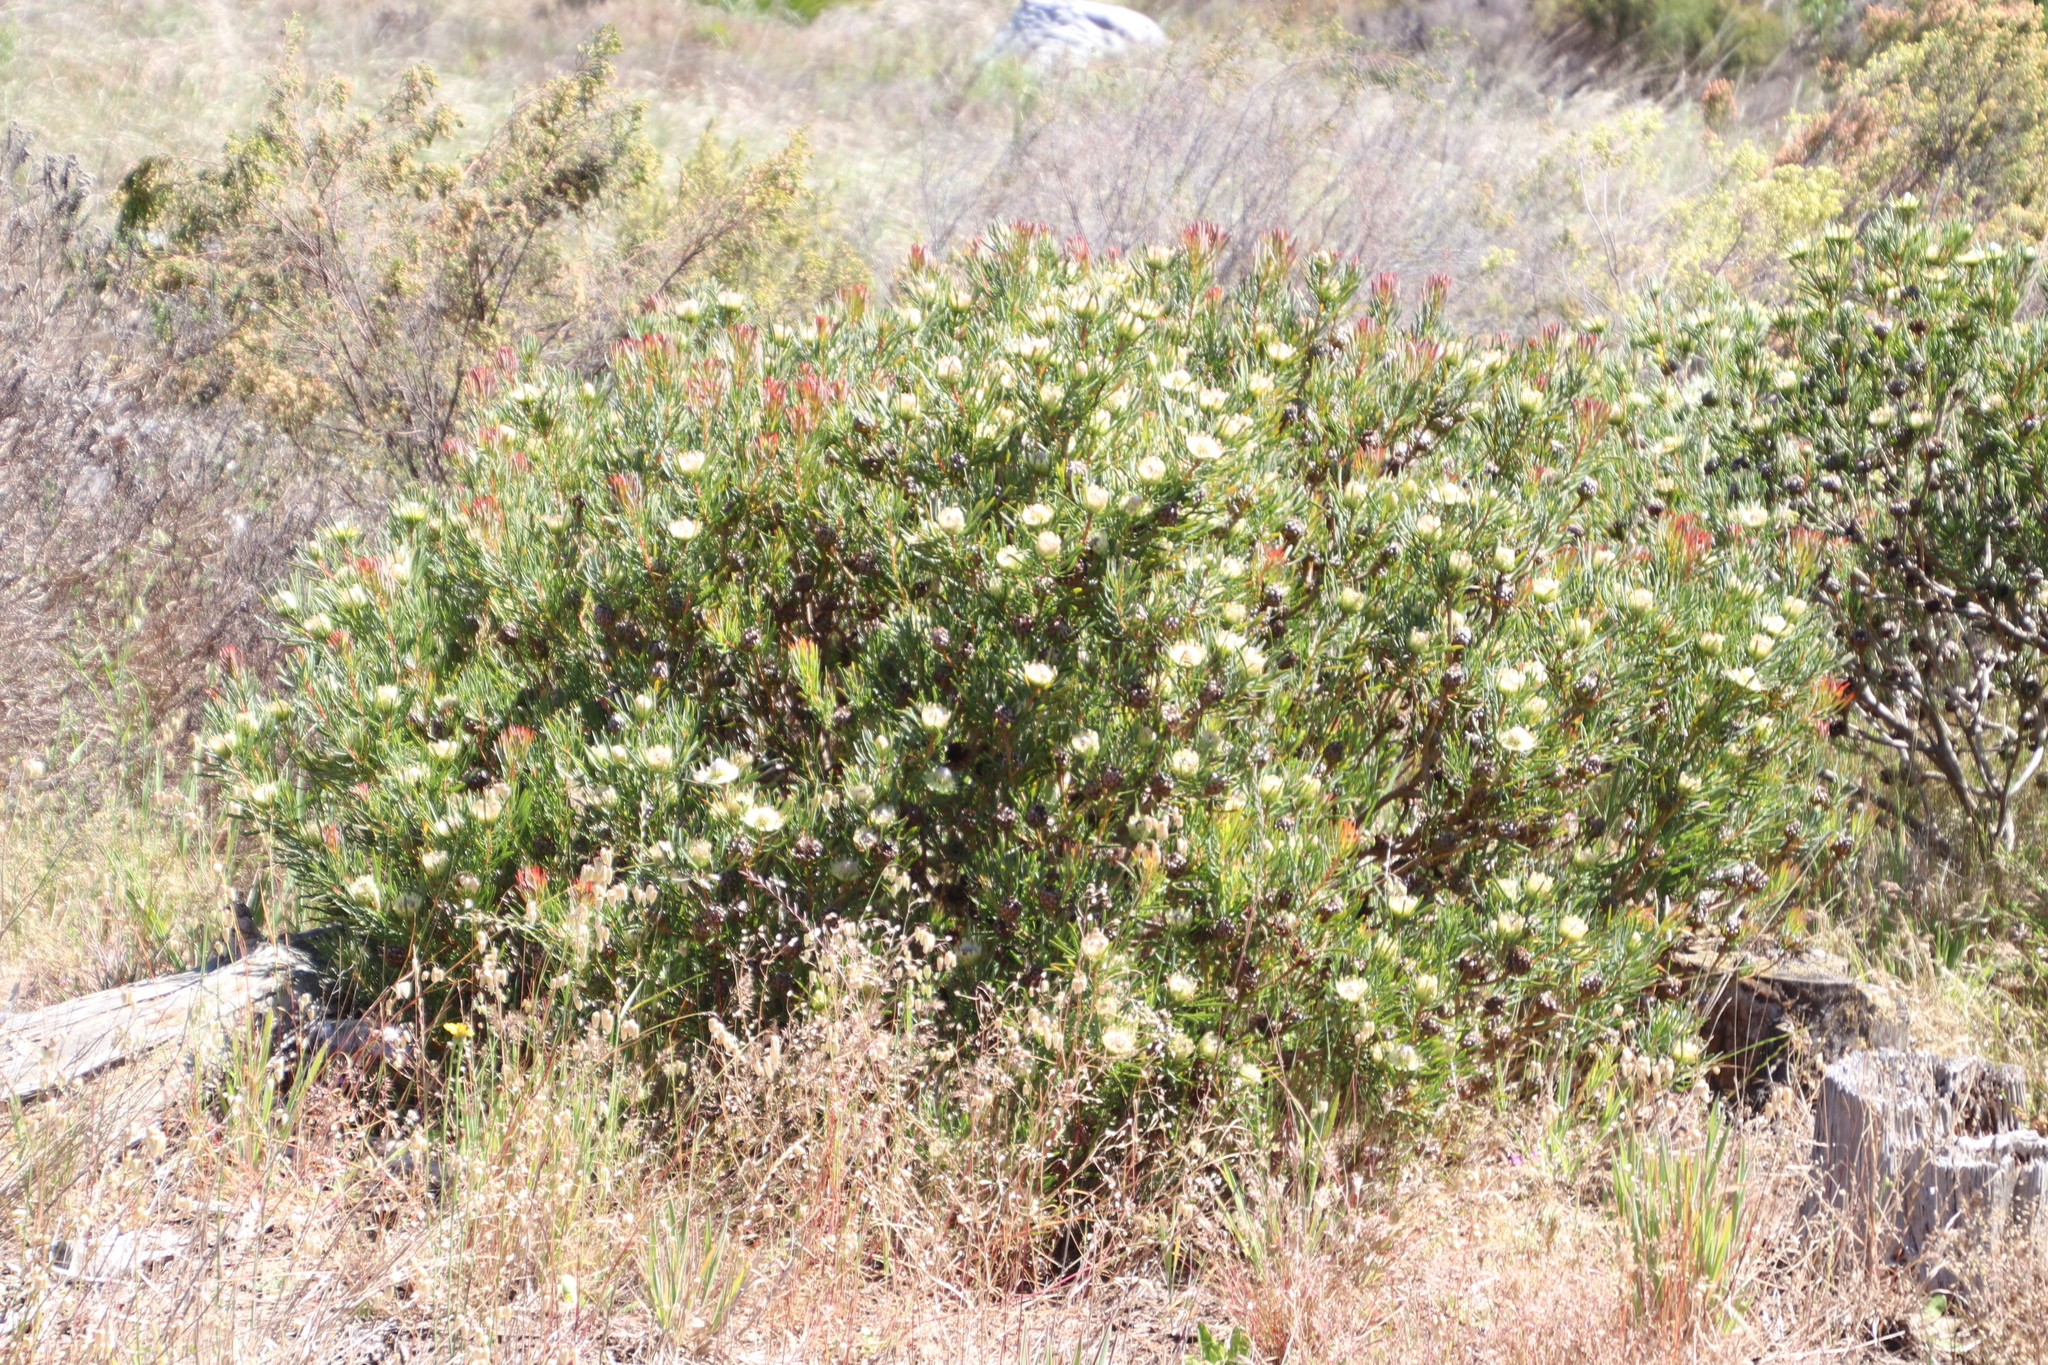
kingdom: Plantae
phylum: Tracheophyta
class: Magnoliopsida
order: Proteales
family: Proteaceae
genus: Protea
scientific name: Protea scolymocephala
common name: Thistle sugarbush
